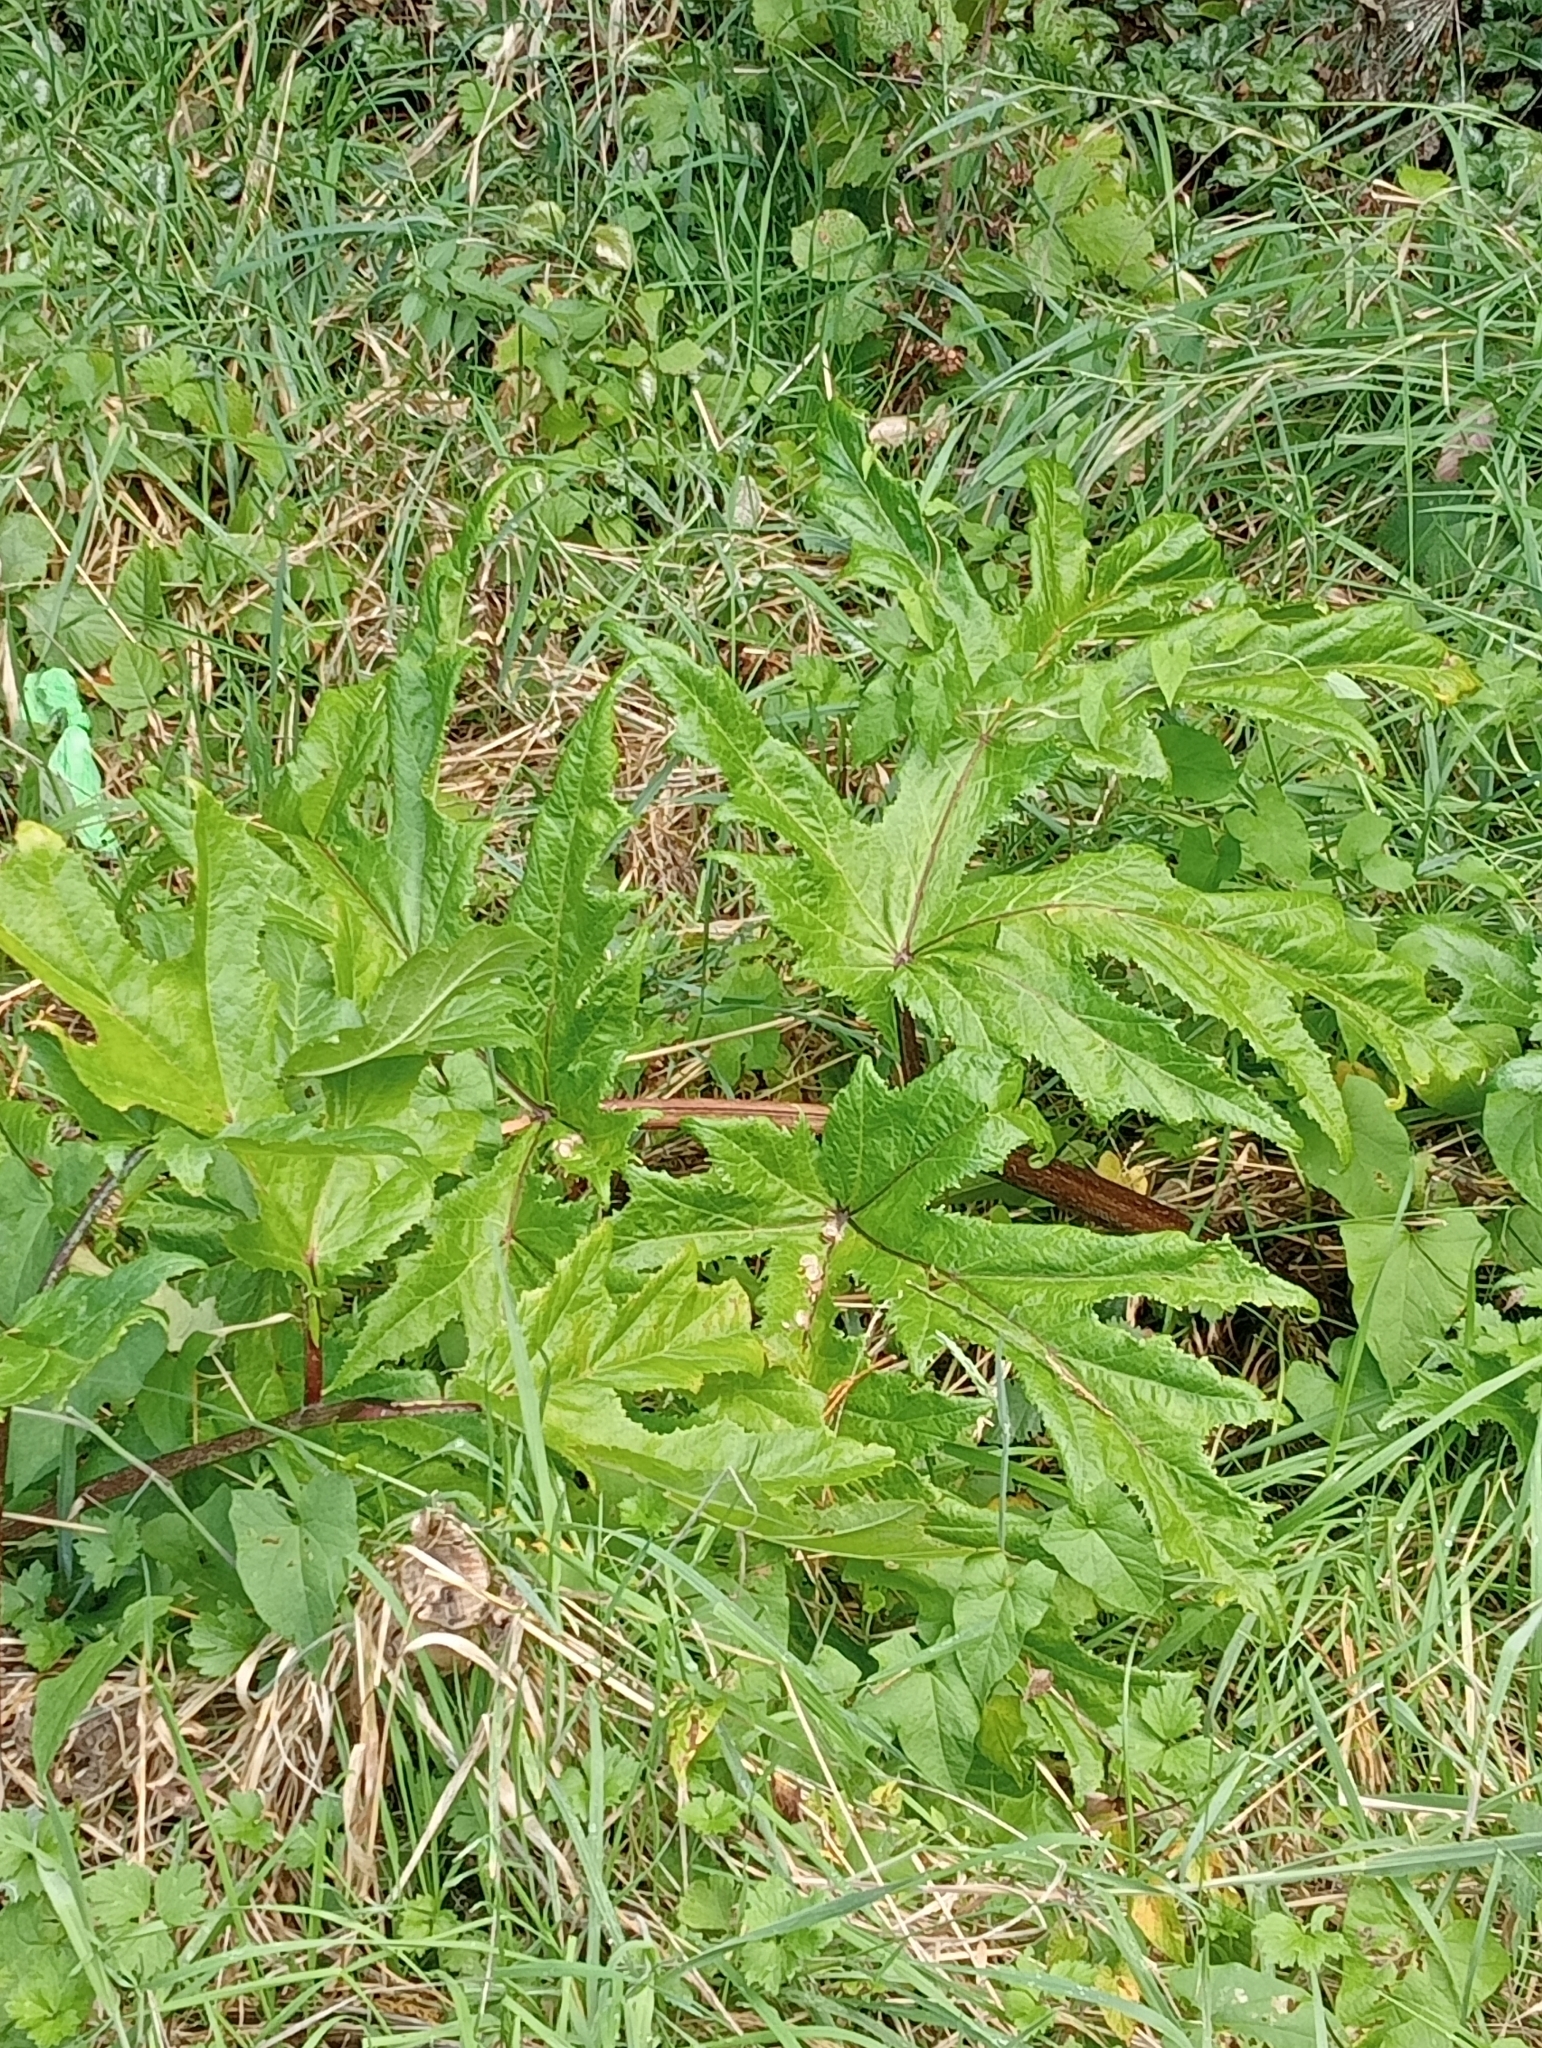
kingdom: Plantae
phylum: Tracheophyta
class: Magnoliopsida
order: Apiales
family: Apiaceae
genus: Heracleum
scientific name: Heracleum mantegazzianum
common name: Giant hogweed
